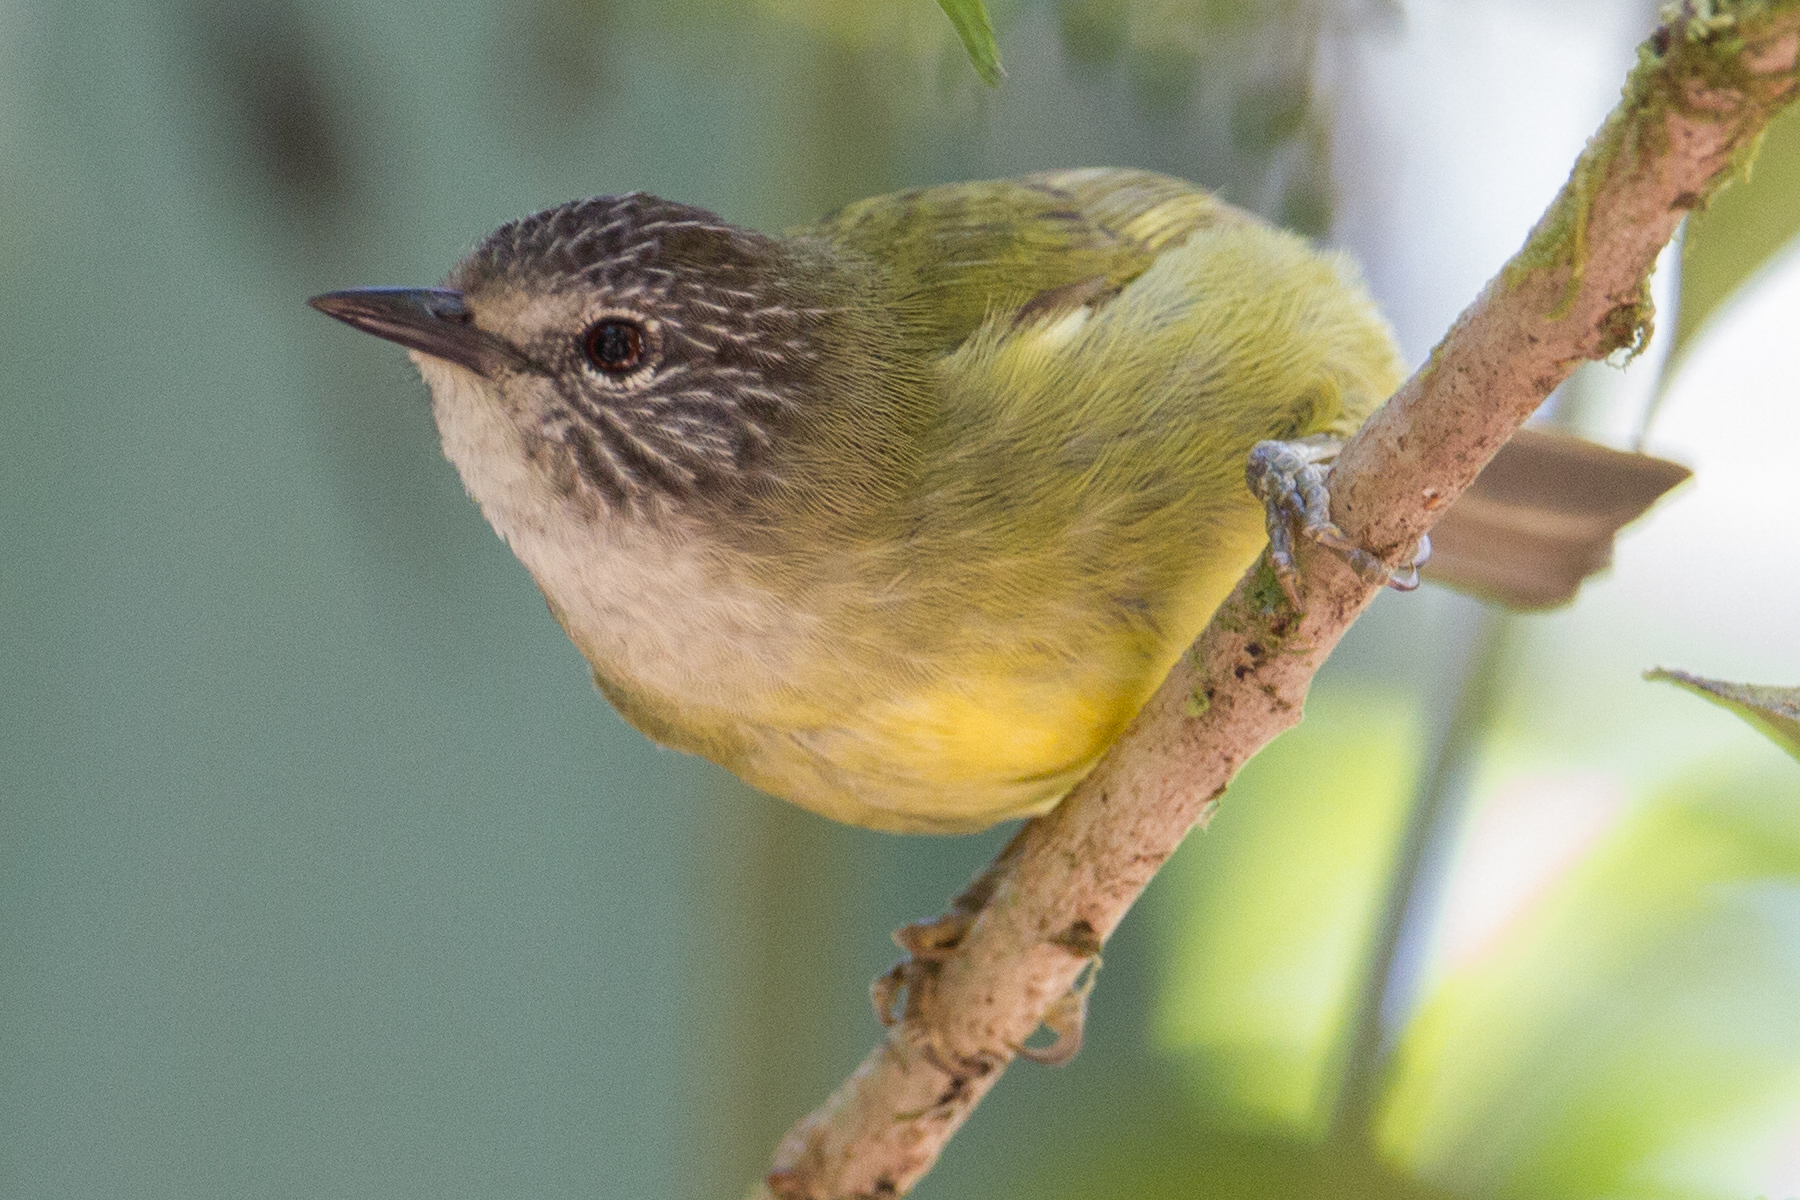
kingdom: Animalia
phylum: Chordata
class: Aves
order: Passeriformes
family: Zosteropidae
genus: Lophozosterops
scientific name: Lophozosterops squamiceps
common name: Streak-headed white-eye
